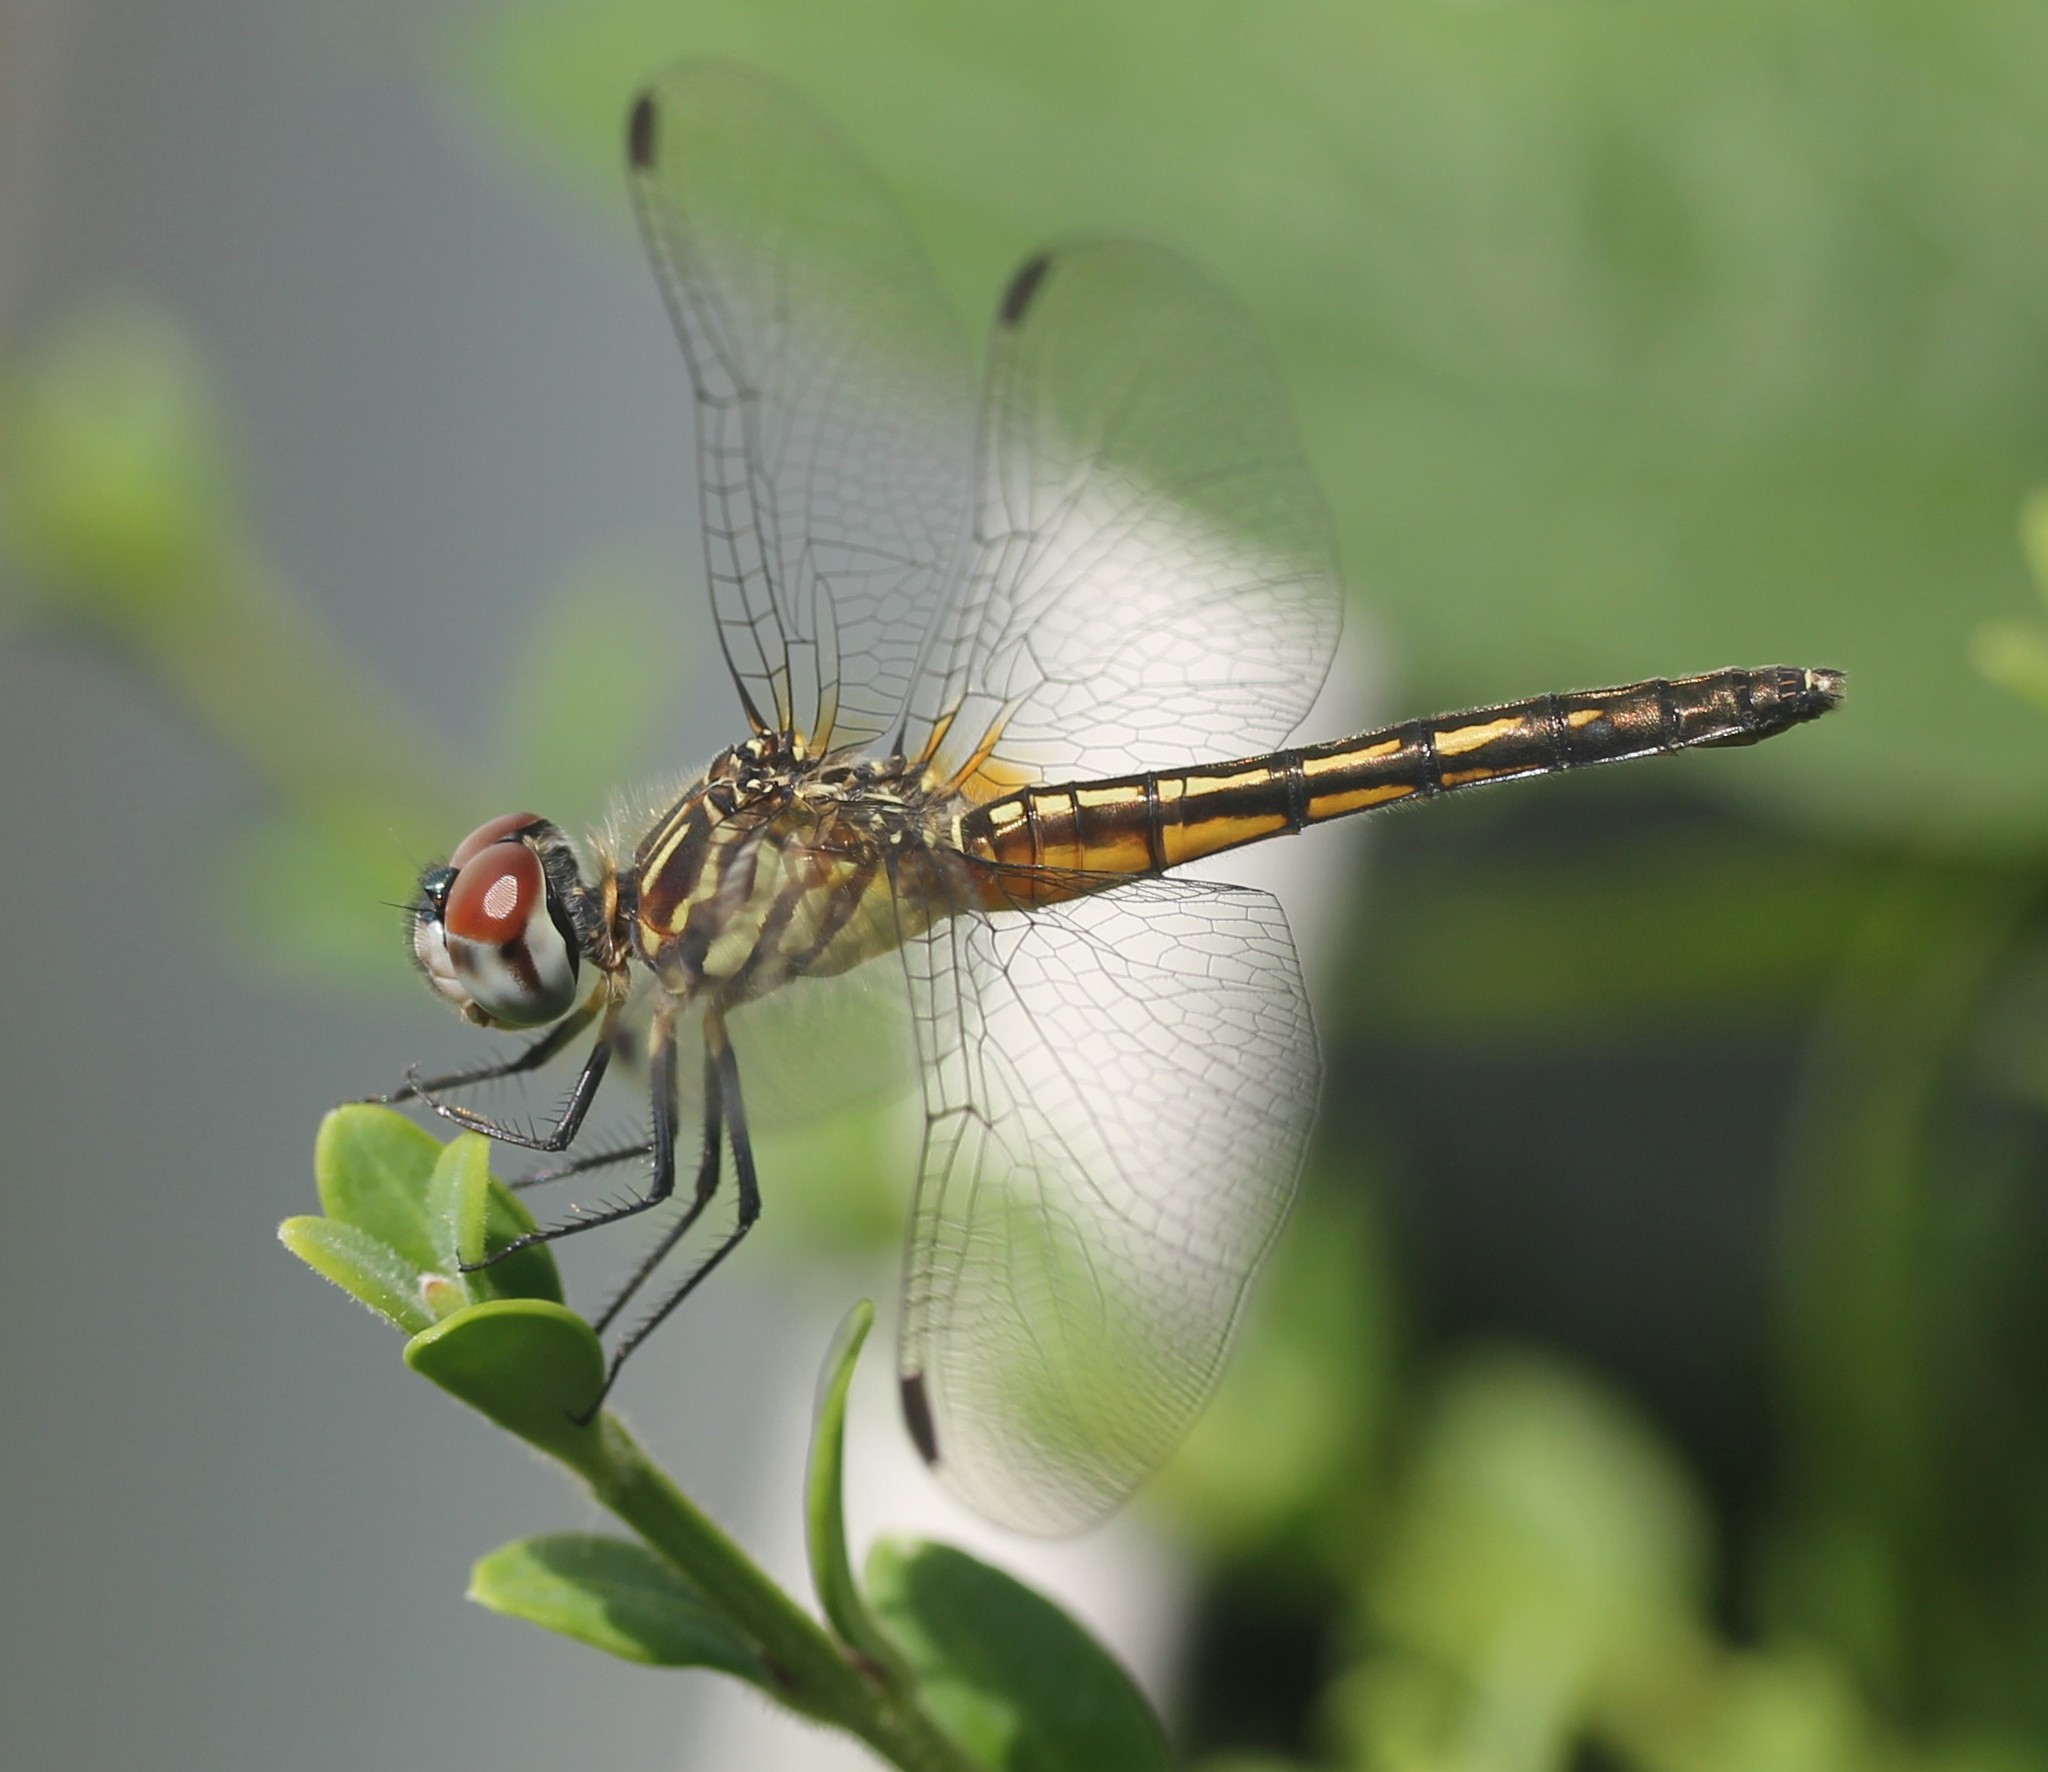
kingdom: Animalia
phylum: Arthropoda
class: Insecta
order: Odonata
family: Libellulidae
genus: Pachydiplax
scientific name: Pachydiplax longipennis
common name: Blue dasher
